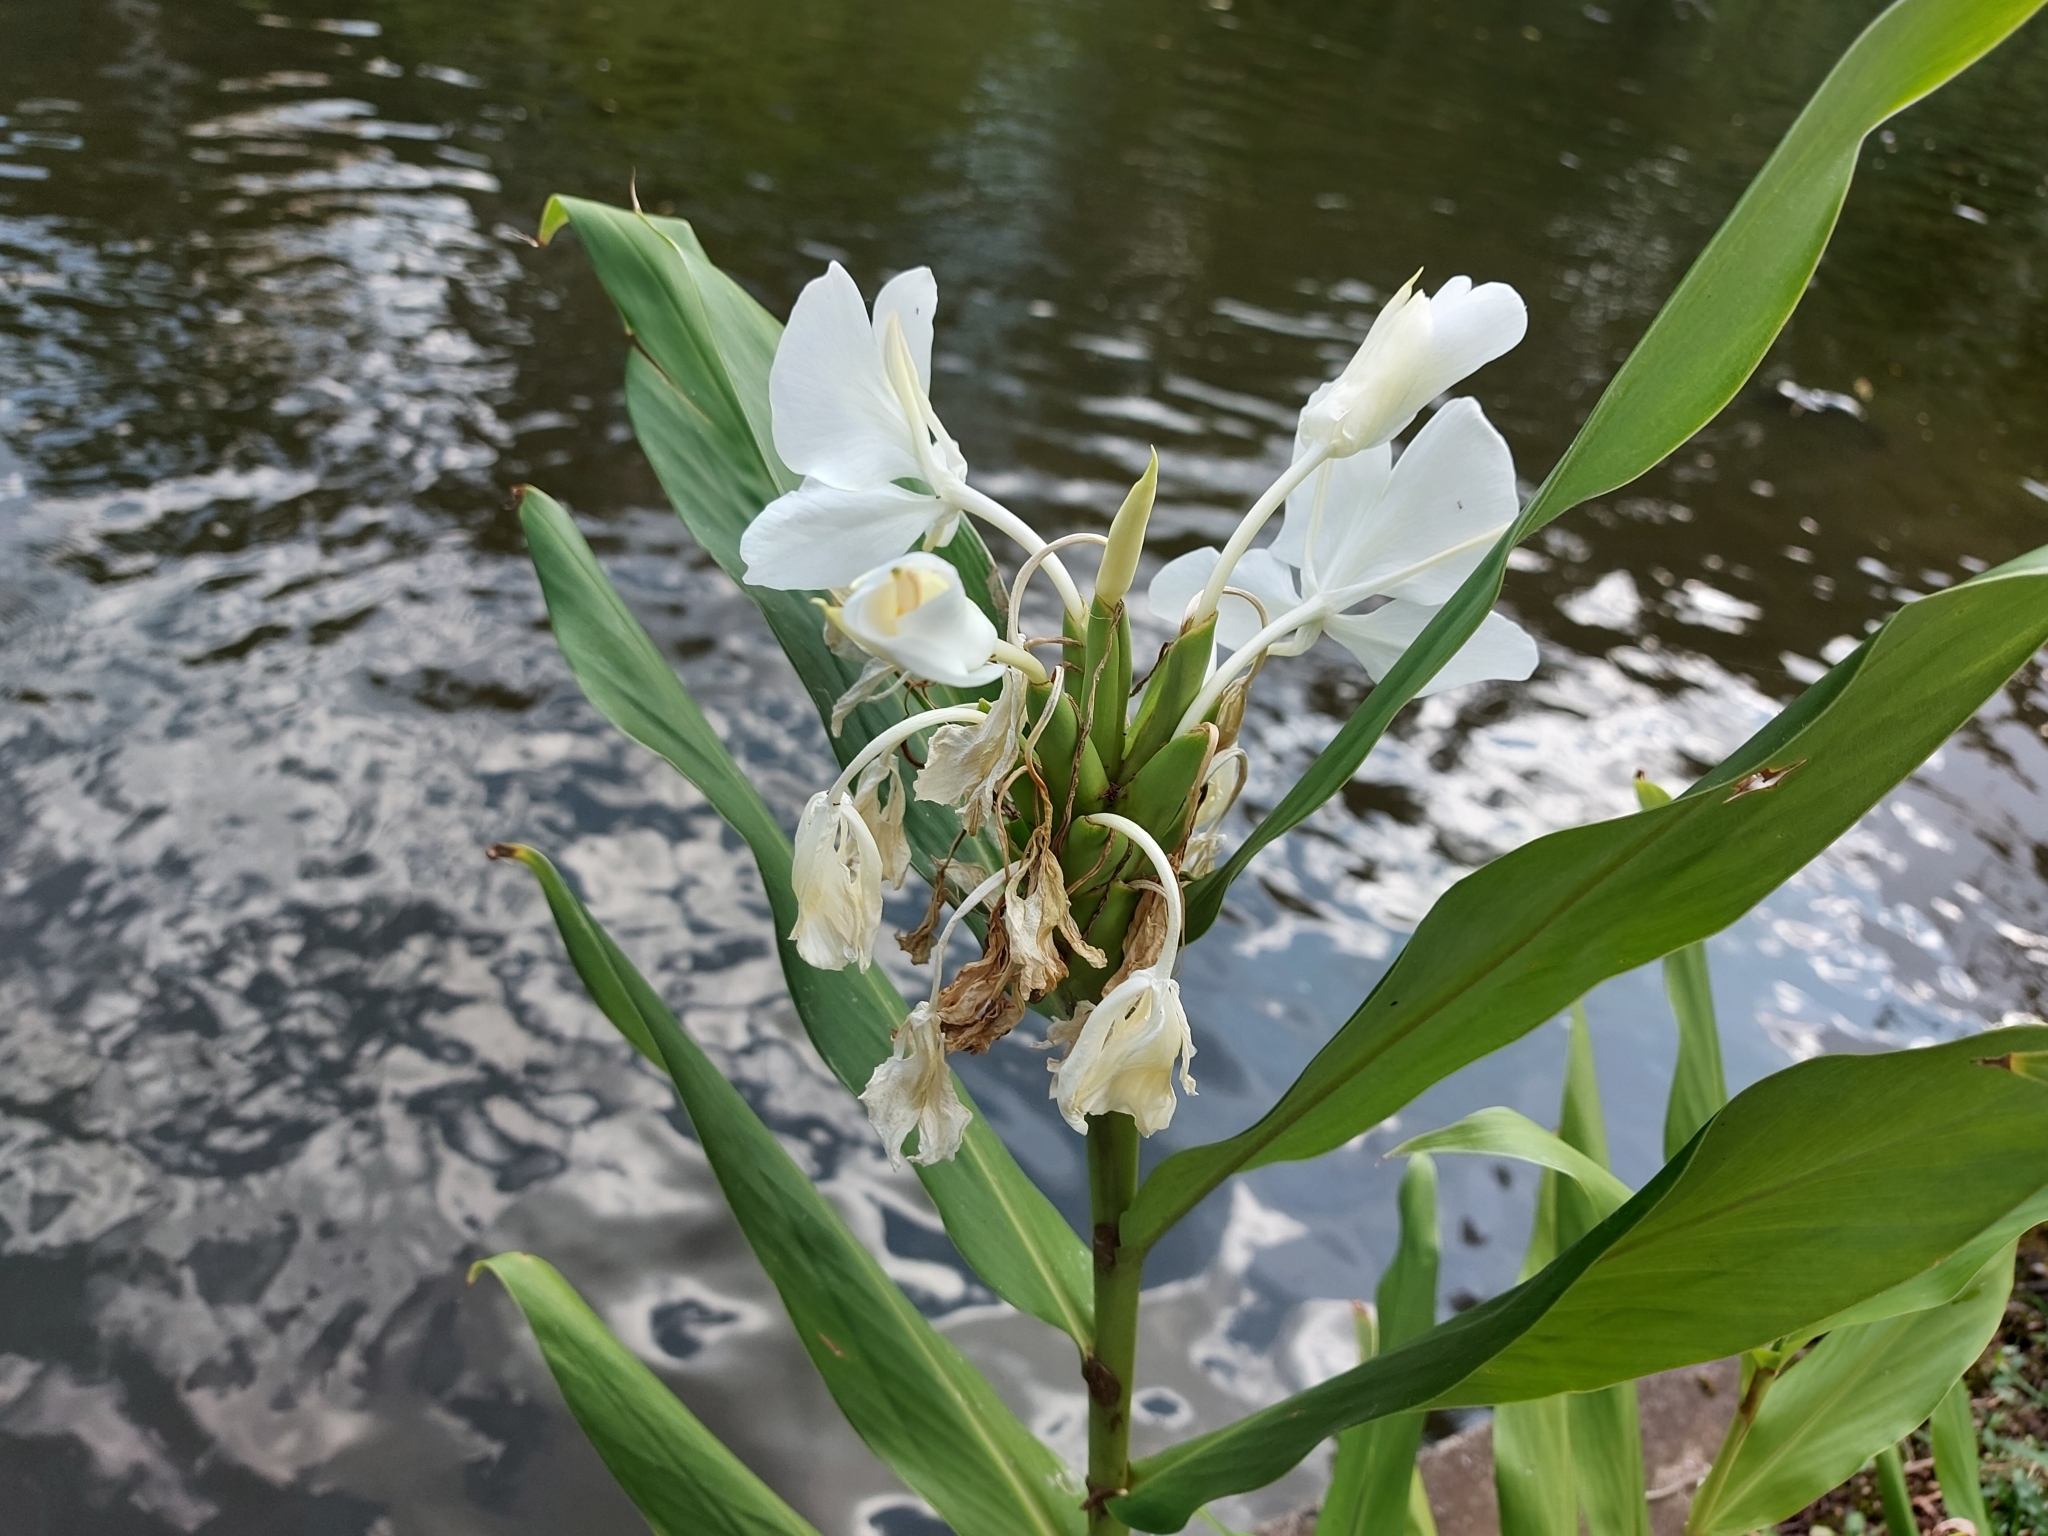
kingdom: Plantae
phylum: Tracheophyta
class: Liliopsida
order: Zingiberales
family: Zingiberaceae
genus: Hedychium
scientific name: Hedychium coronarium
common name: White garland-lily
